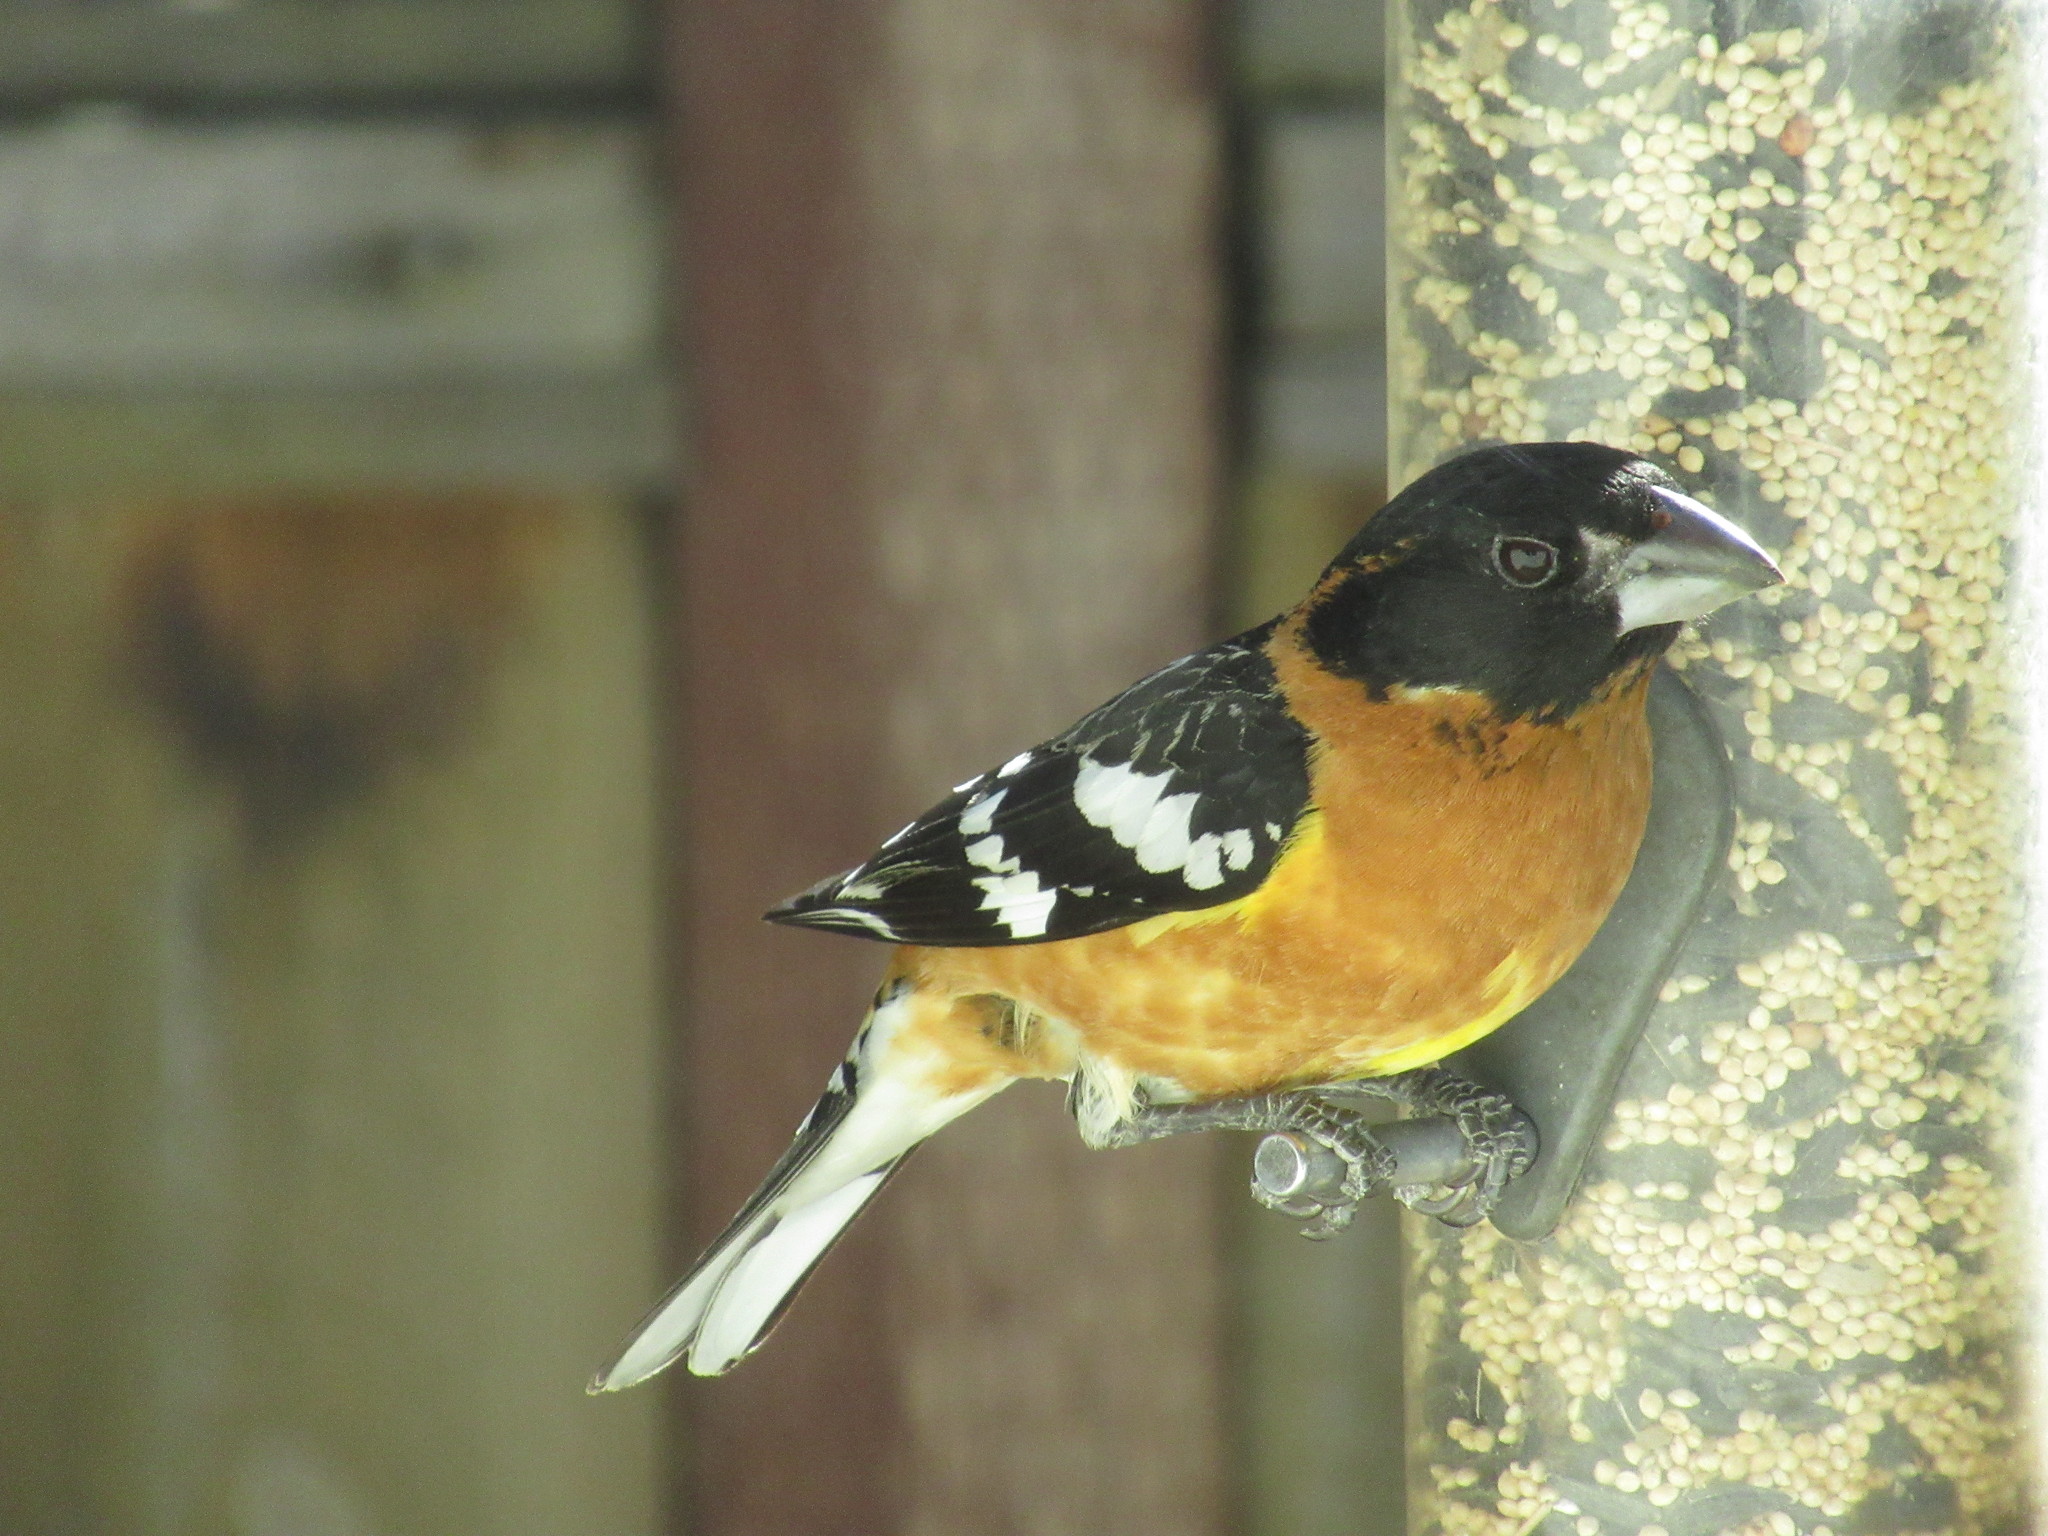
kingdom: Animalia
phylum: Chordata
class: Aves
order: Passeriformes
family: Cardinalidae
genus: Pheucticus
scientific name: Pheucticus melanocephalus
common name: Black-headed grosbeak
